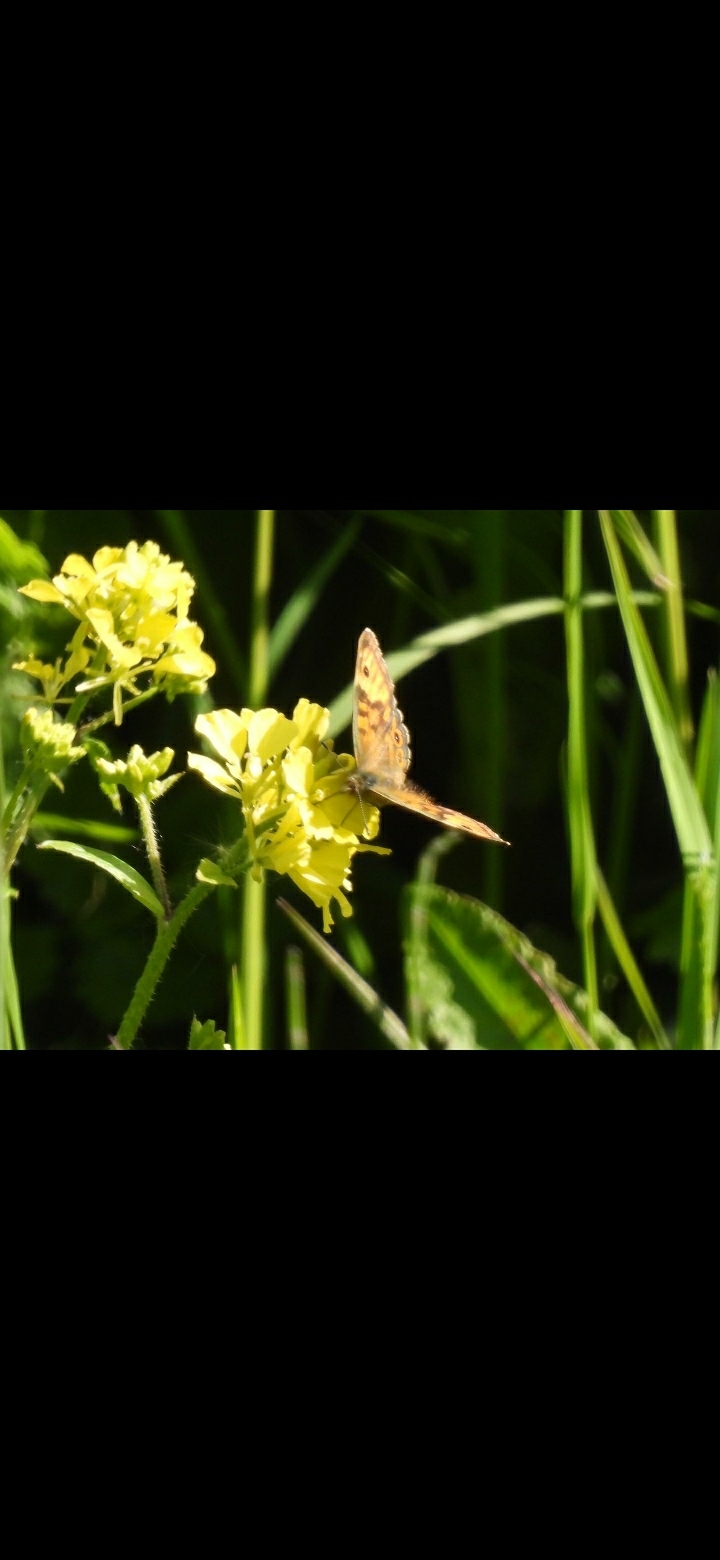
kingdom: Animalia
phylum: Arthropoda
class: Insecta
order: Lepidoptera
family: Nymphalidae
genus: Pararge
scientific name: Pararge Lasiommata megera
